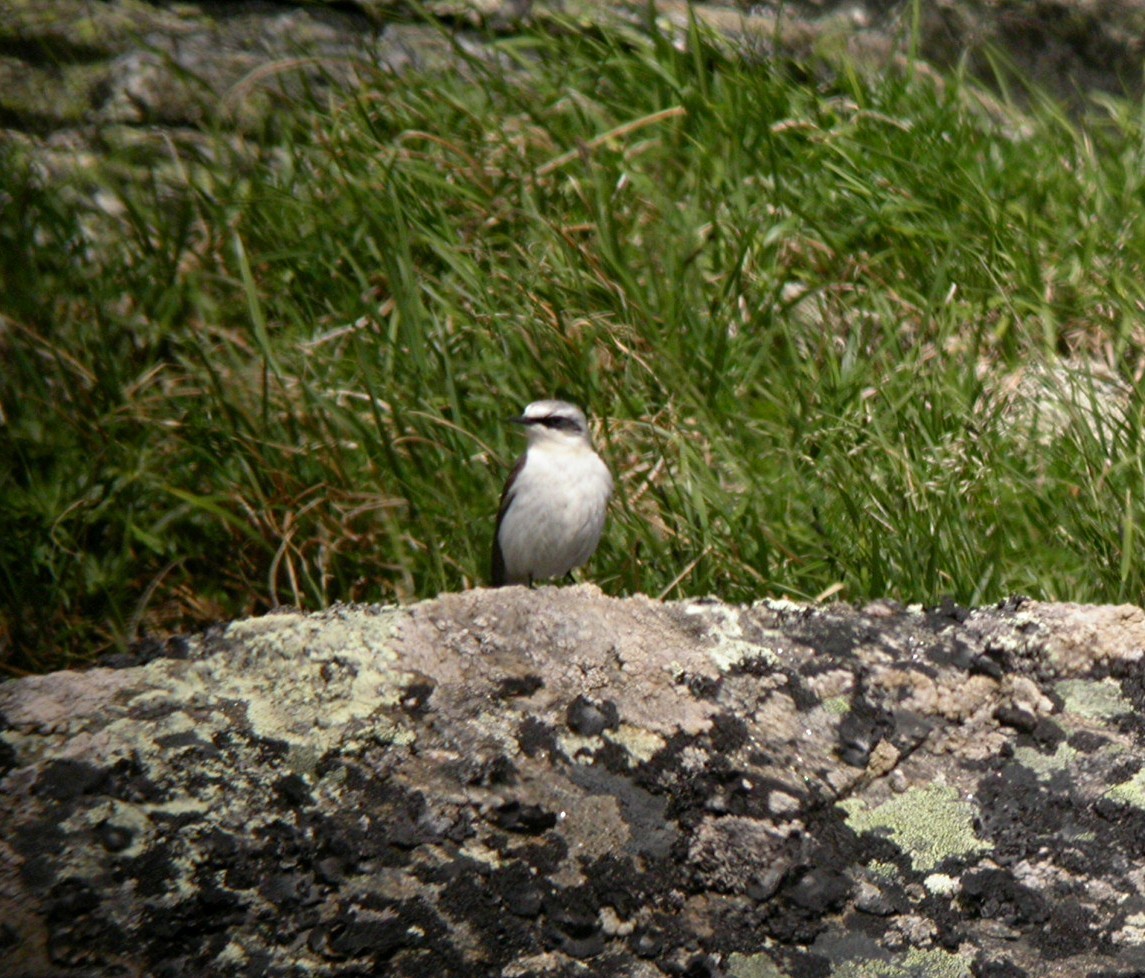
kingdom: Animalia
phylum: Chordata
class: Aves
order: Passeriformes
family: Muscicapidae
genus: Oenanthe
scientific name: Oenanthe oenanthe
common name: Northern wheatear
